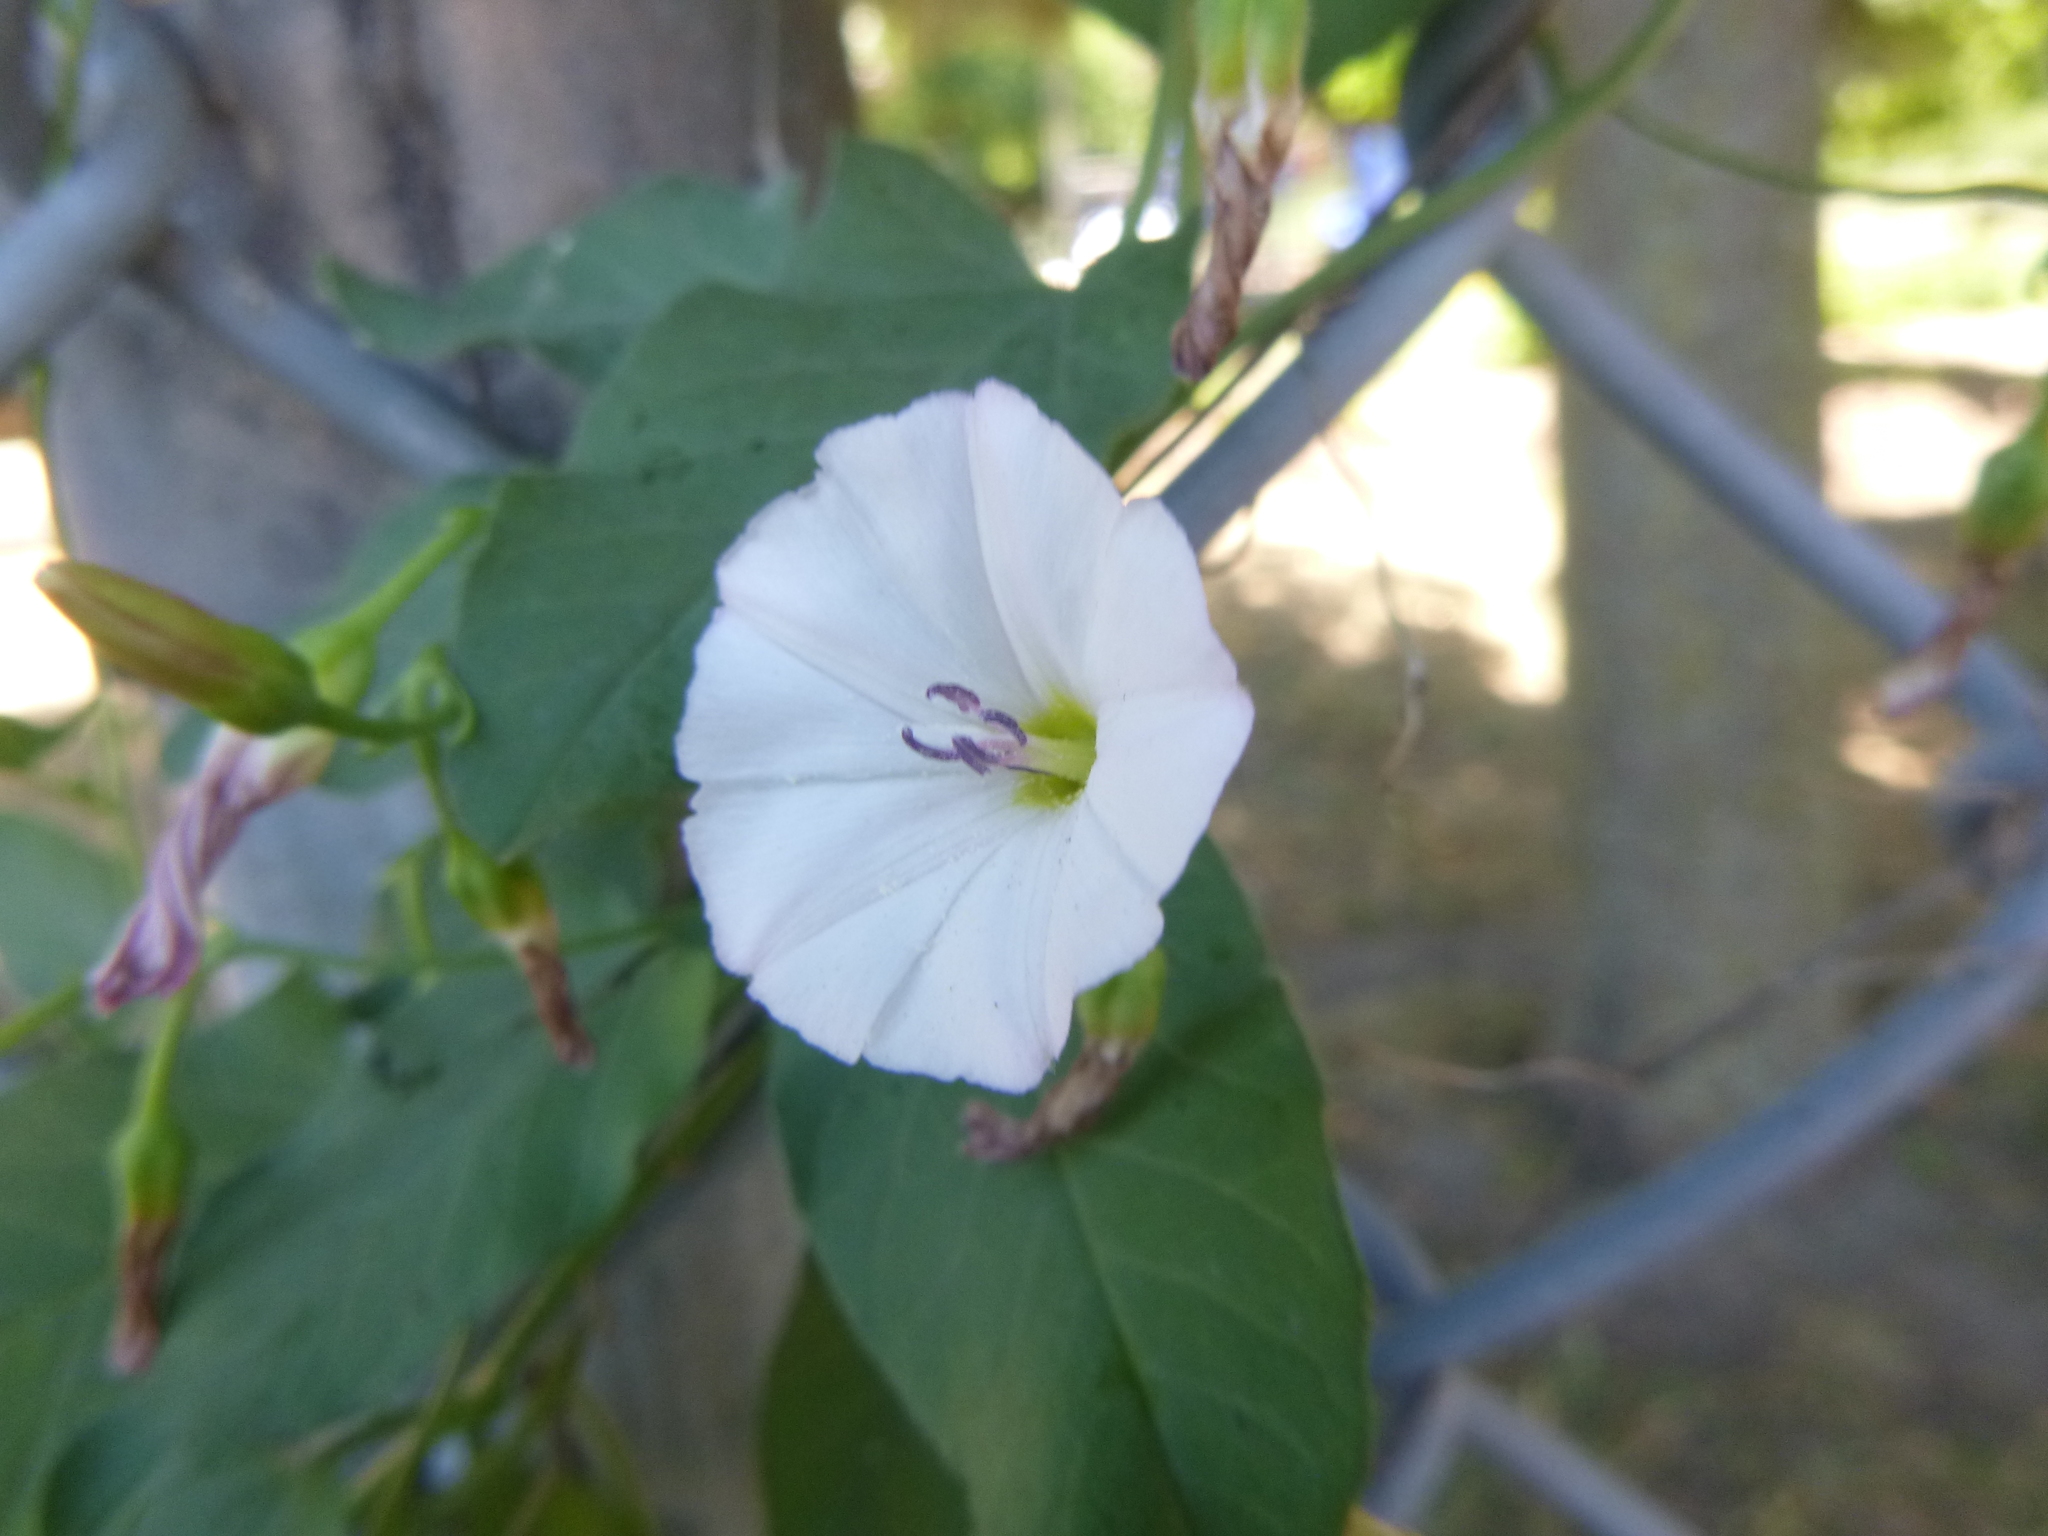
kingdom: Plantae
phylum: Tracheophyta
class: Magnoliopsida
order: Solanales
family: Convolvulaceae
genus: Convolvulus
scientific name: Convolvulus arvensis
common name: Field bindweed
